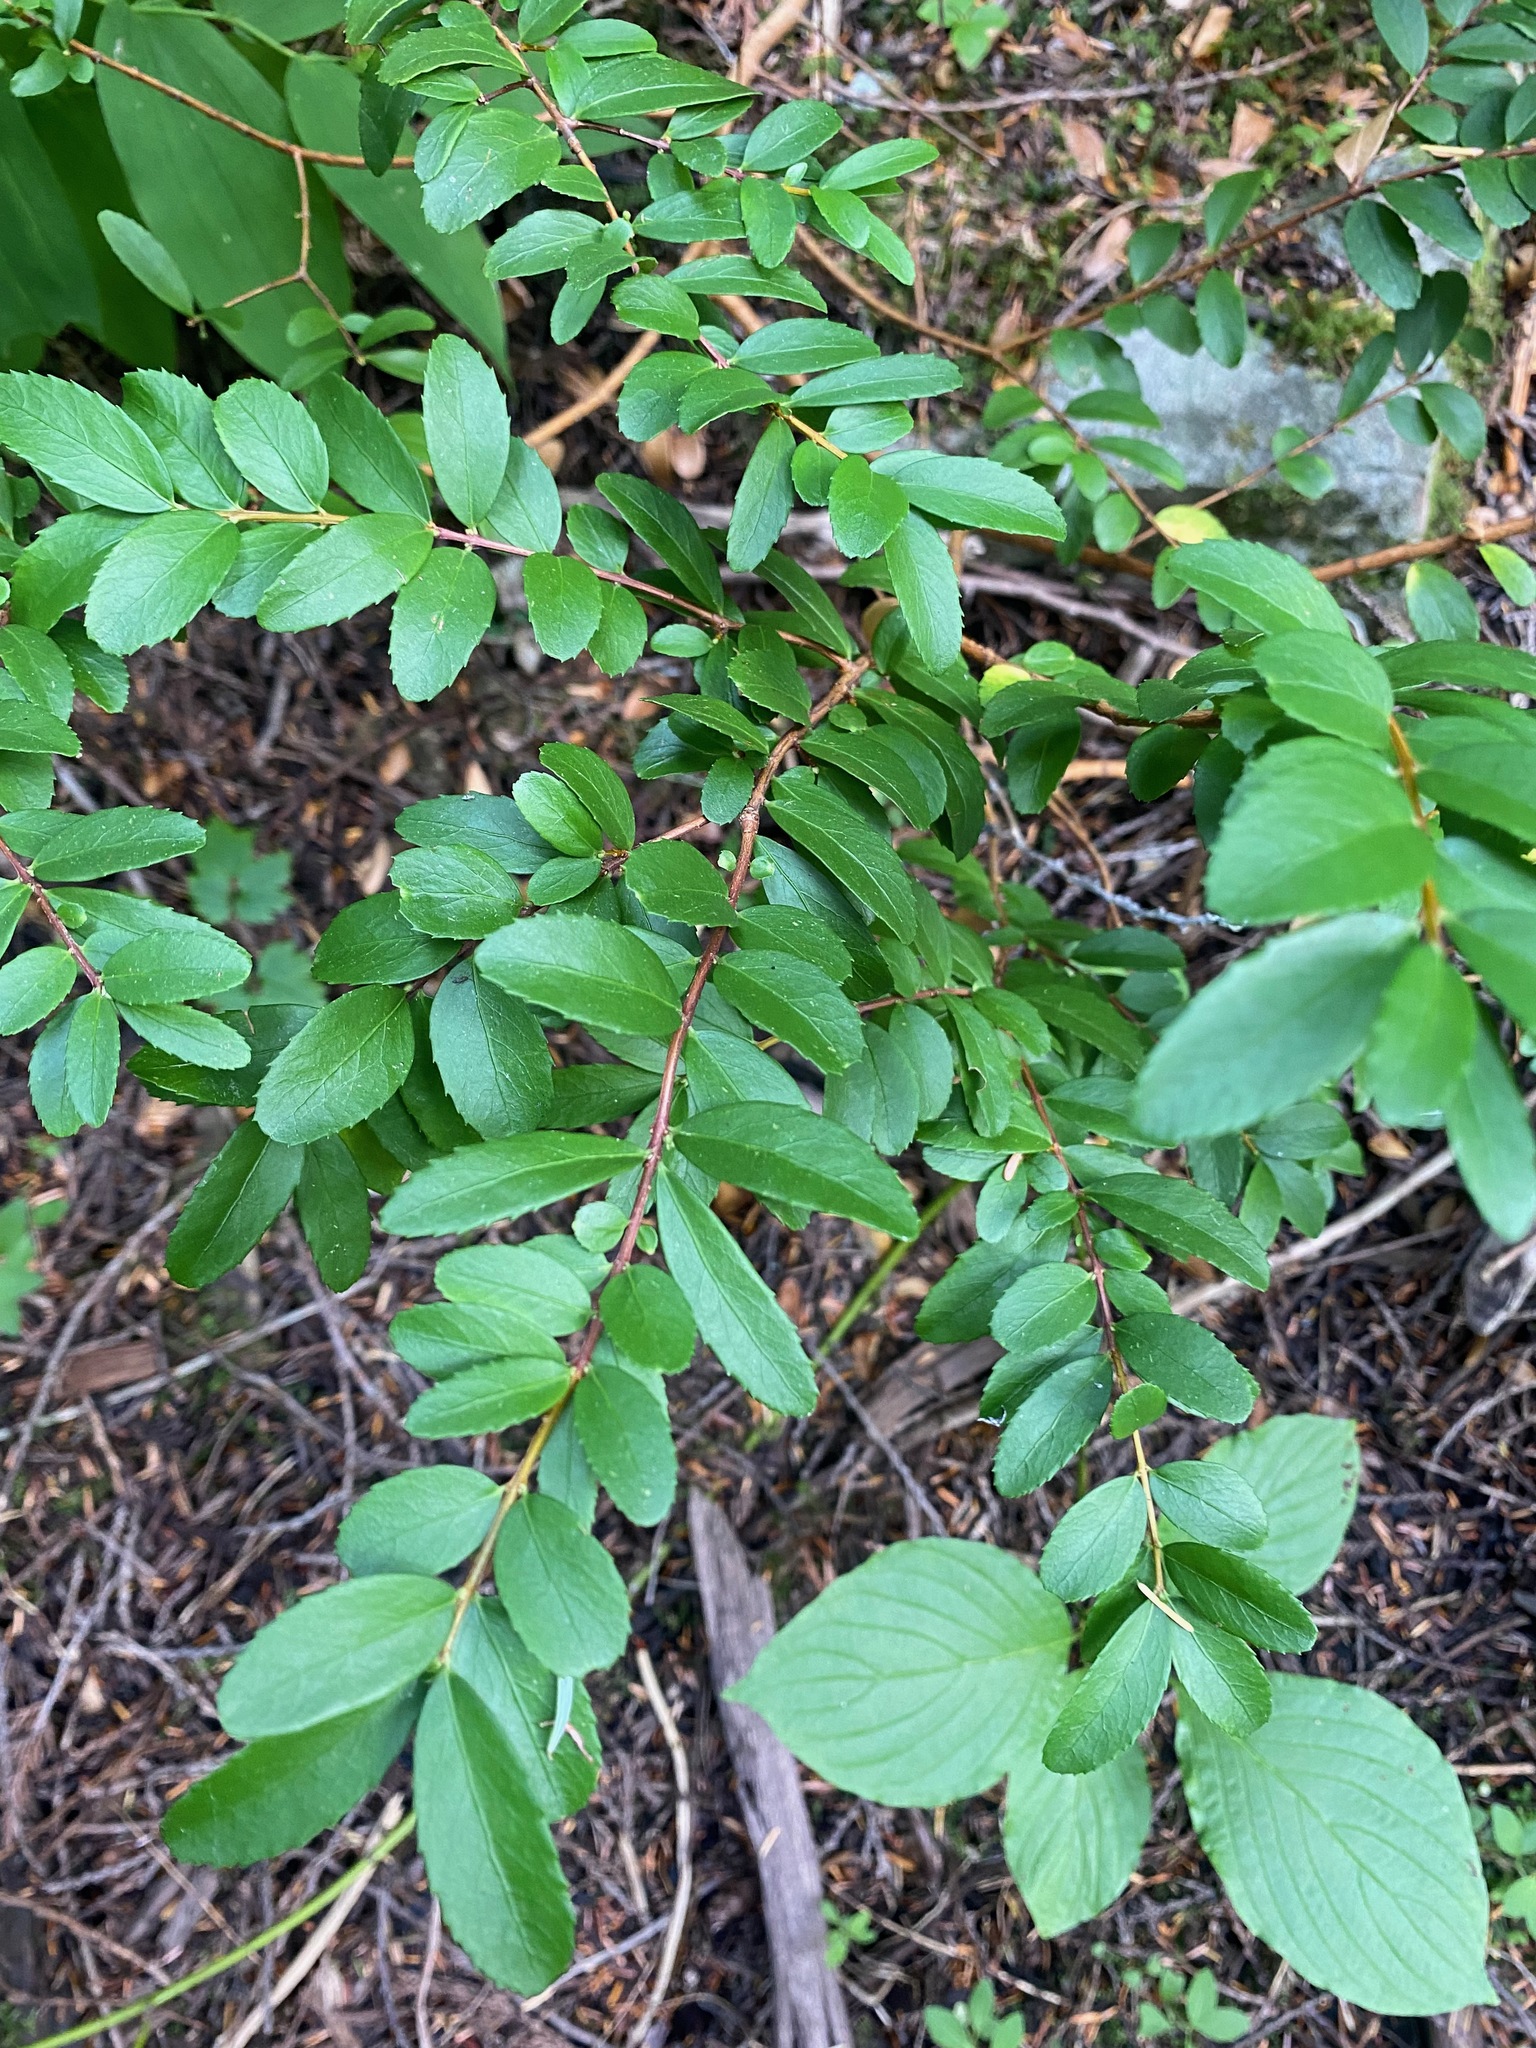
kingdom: Plantae
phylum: Tracheophyta
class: Magnoliopsida
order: Celastrales
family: Celastraceae
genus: Paxistima
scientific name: Paxistima myrsinites
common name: Mountain-lover
